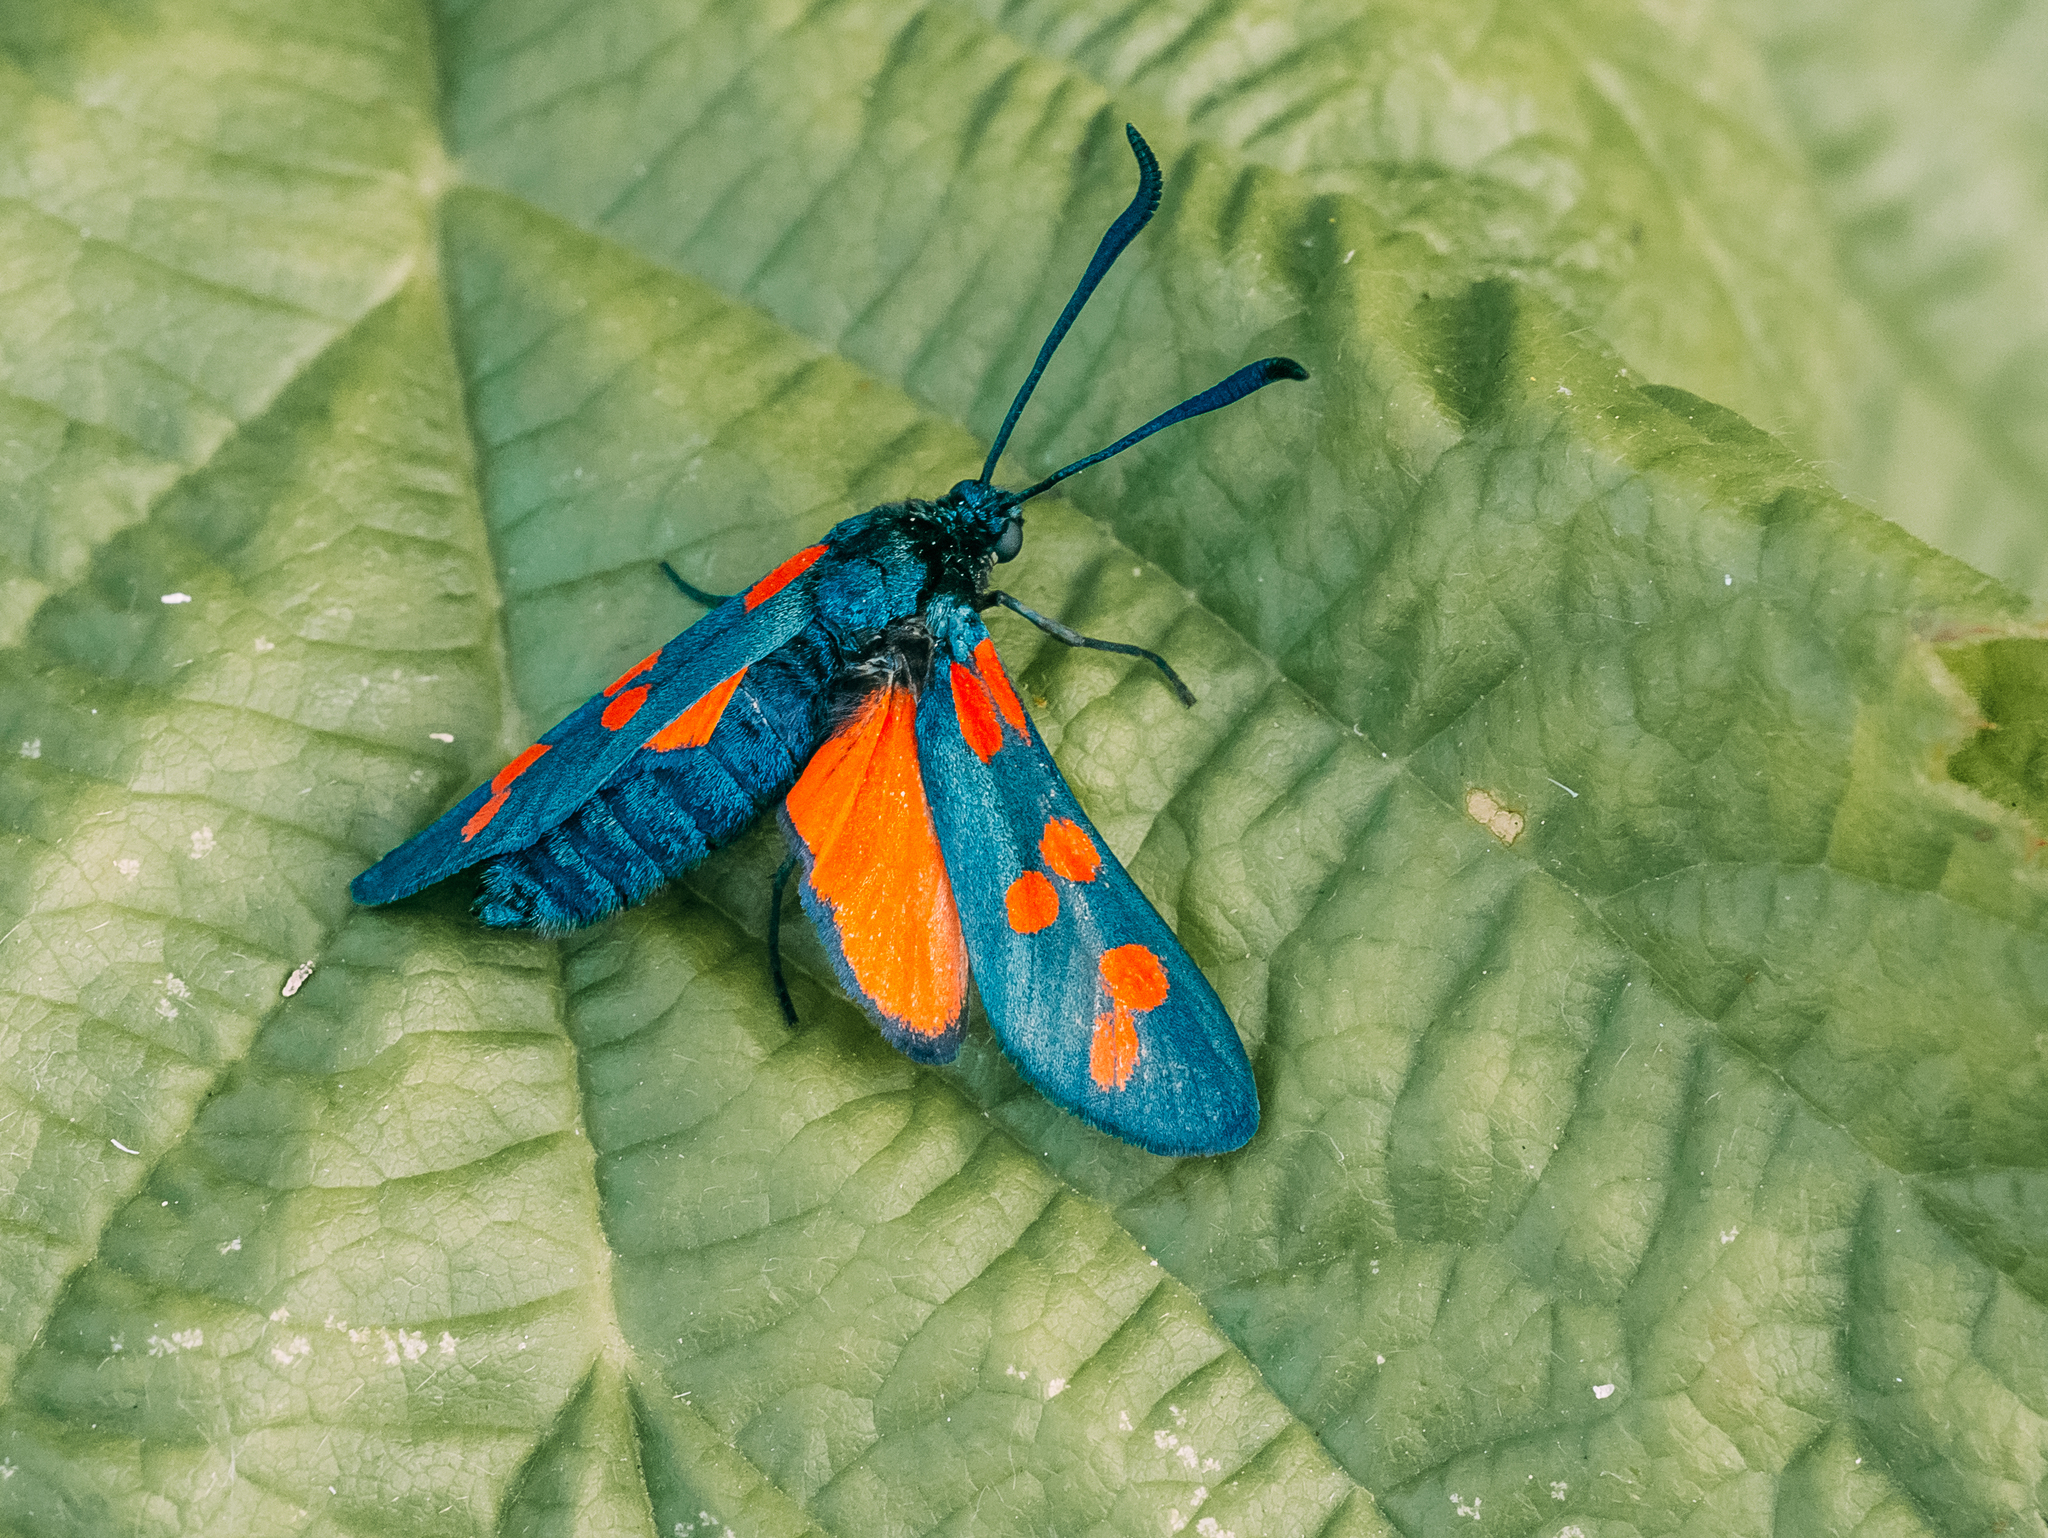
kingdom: Animalia
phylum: Arthropoda
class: Insecta
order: Lepidoptera
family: Zygaenidae
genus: Zygaena
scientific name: Zygaena filipendulae
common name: Six-spot burnet
